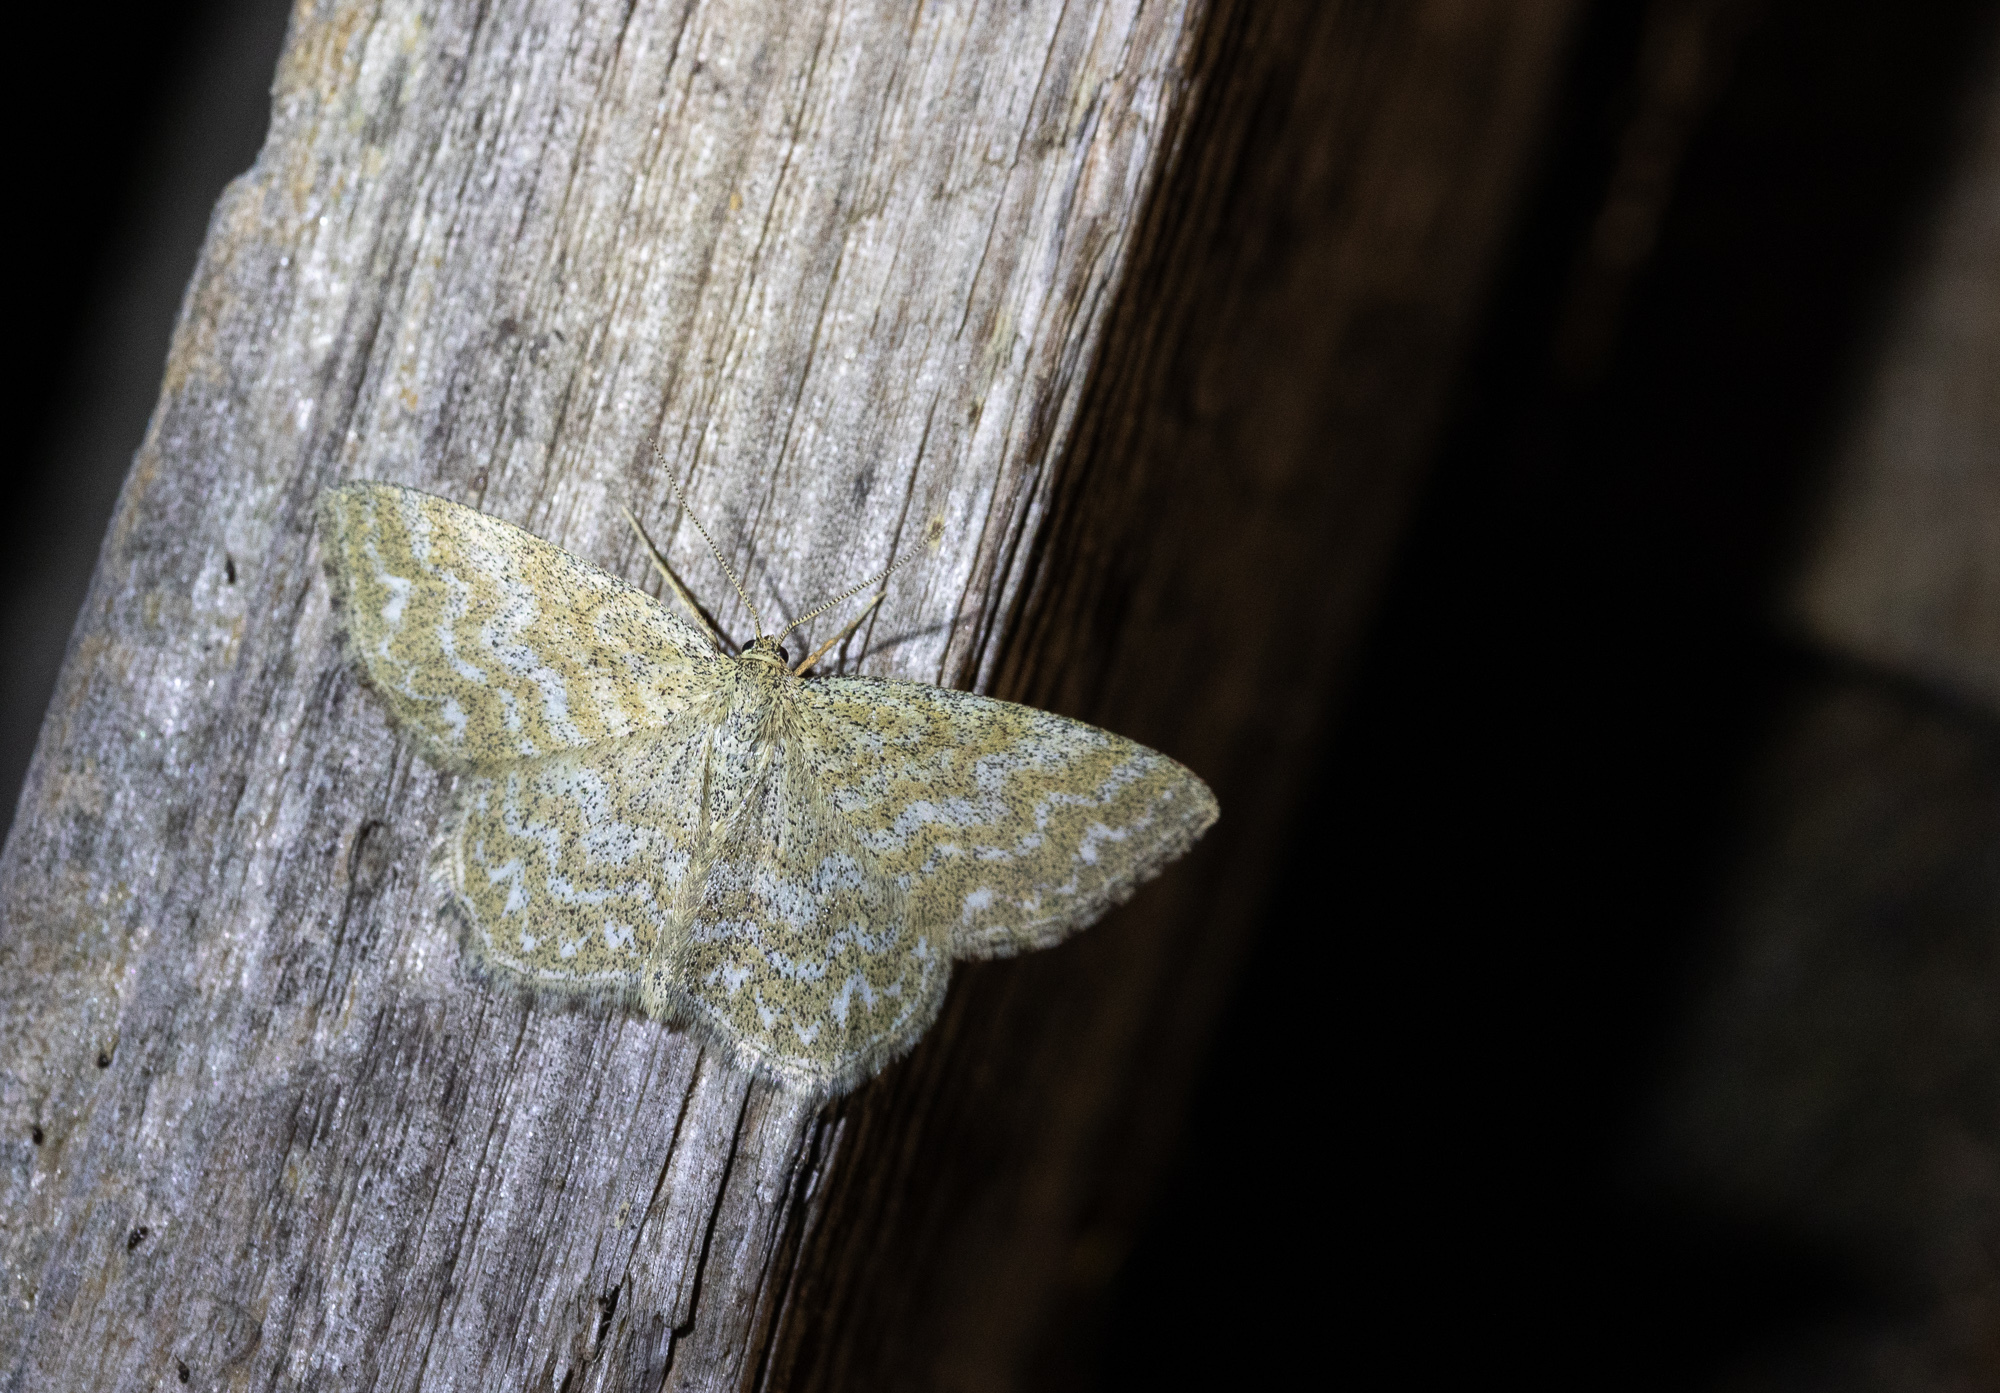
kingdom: Animalia
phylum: Arthropoda
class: Insecta
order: Lepidoptera
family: Geometridae
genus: Scopula
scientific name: Scopula immorata
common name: Lewes wave
